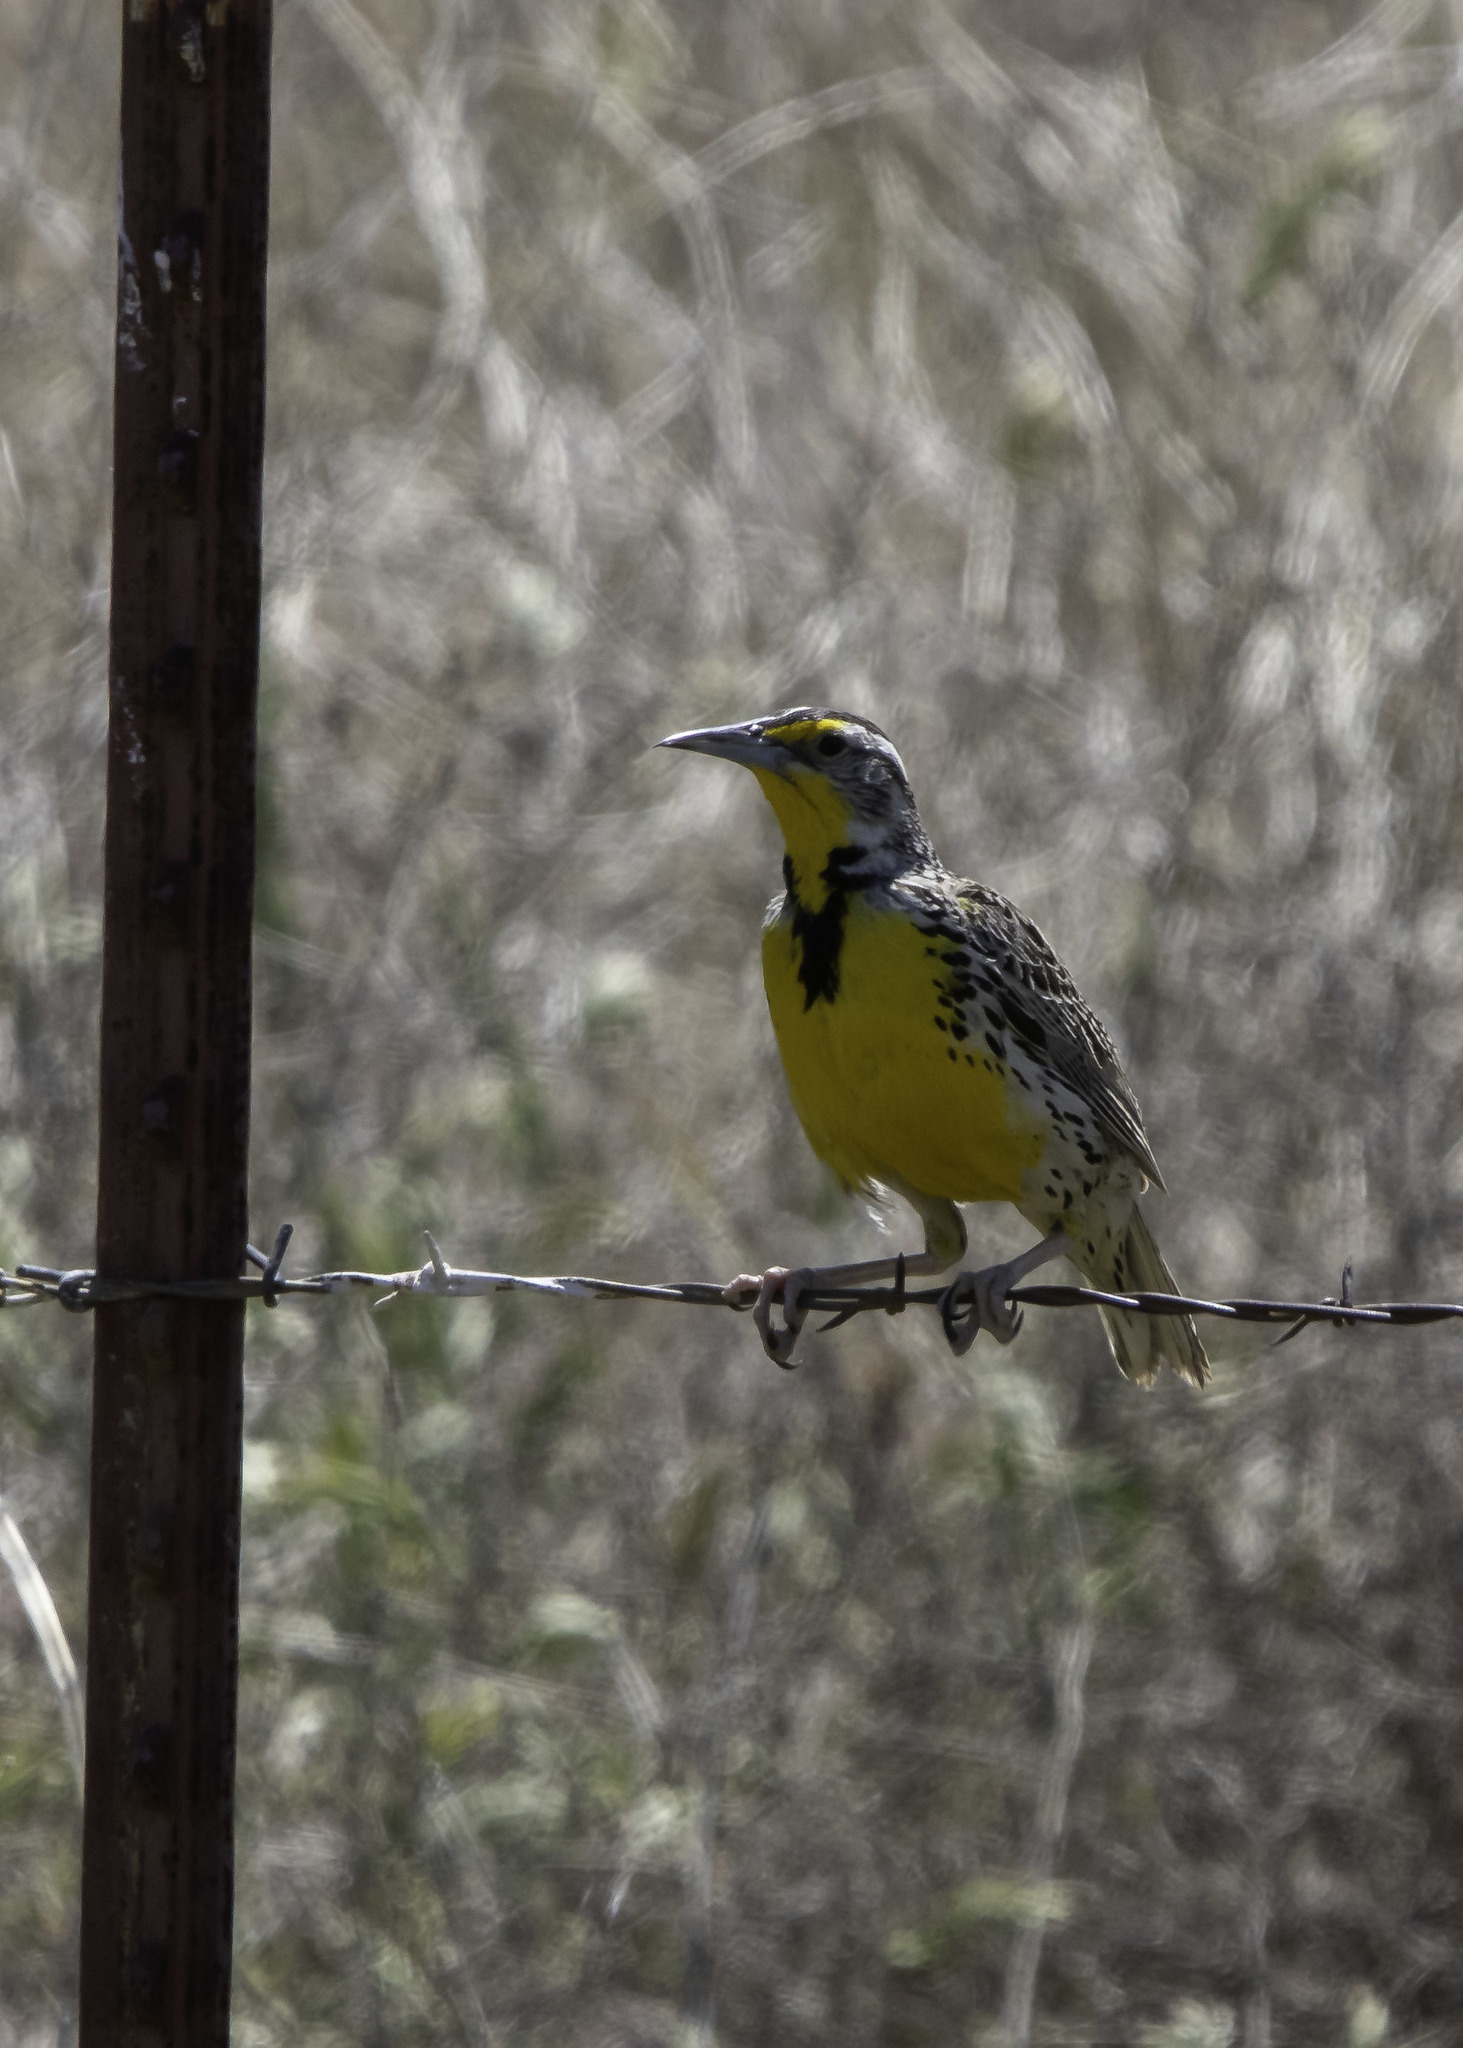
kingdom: Animalia
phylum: Chordata
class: Aves
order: Passeriformes
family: Icteridae
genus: Sturnella
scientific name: Sturnella neglecta
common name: Western meadowlark
